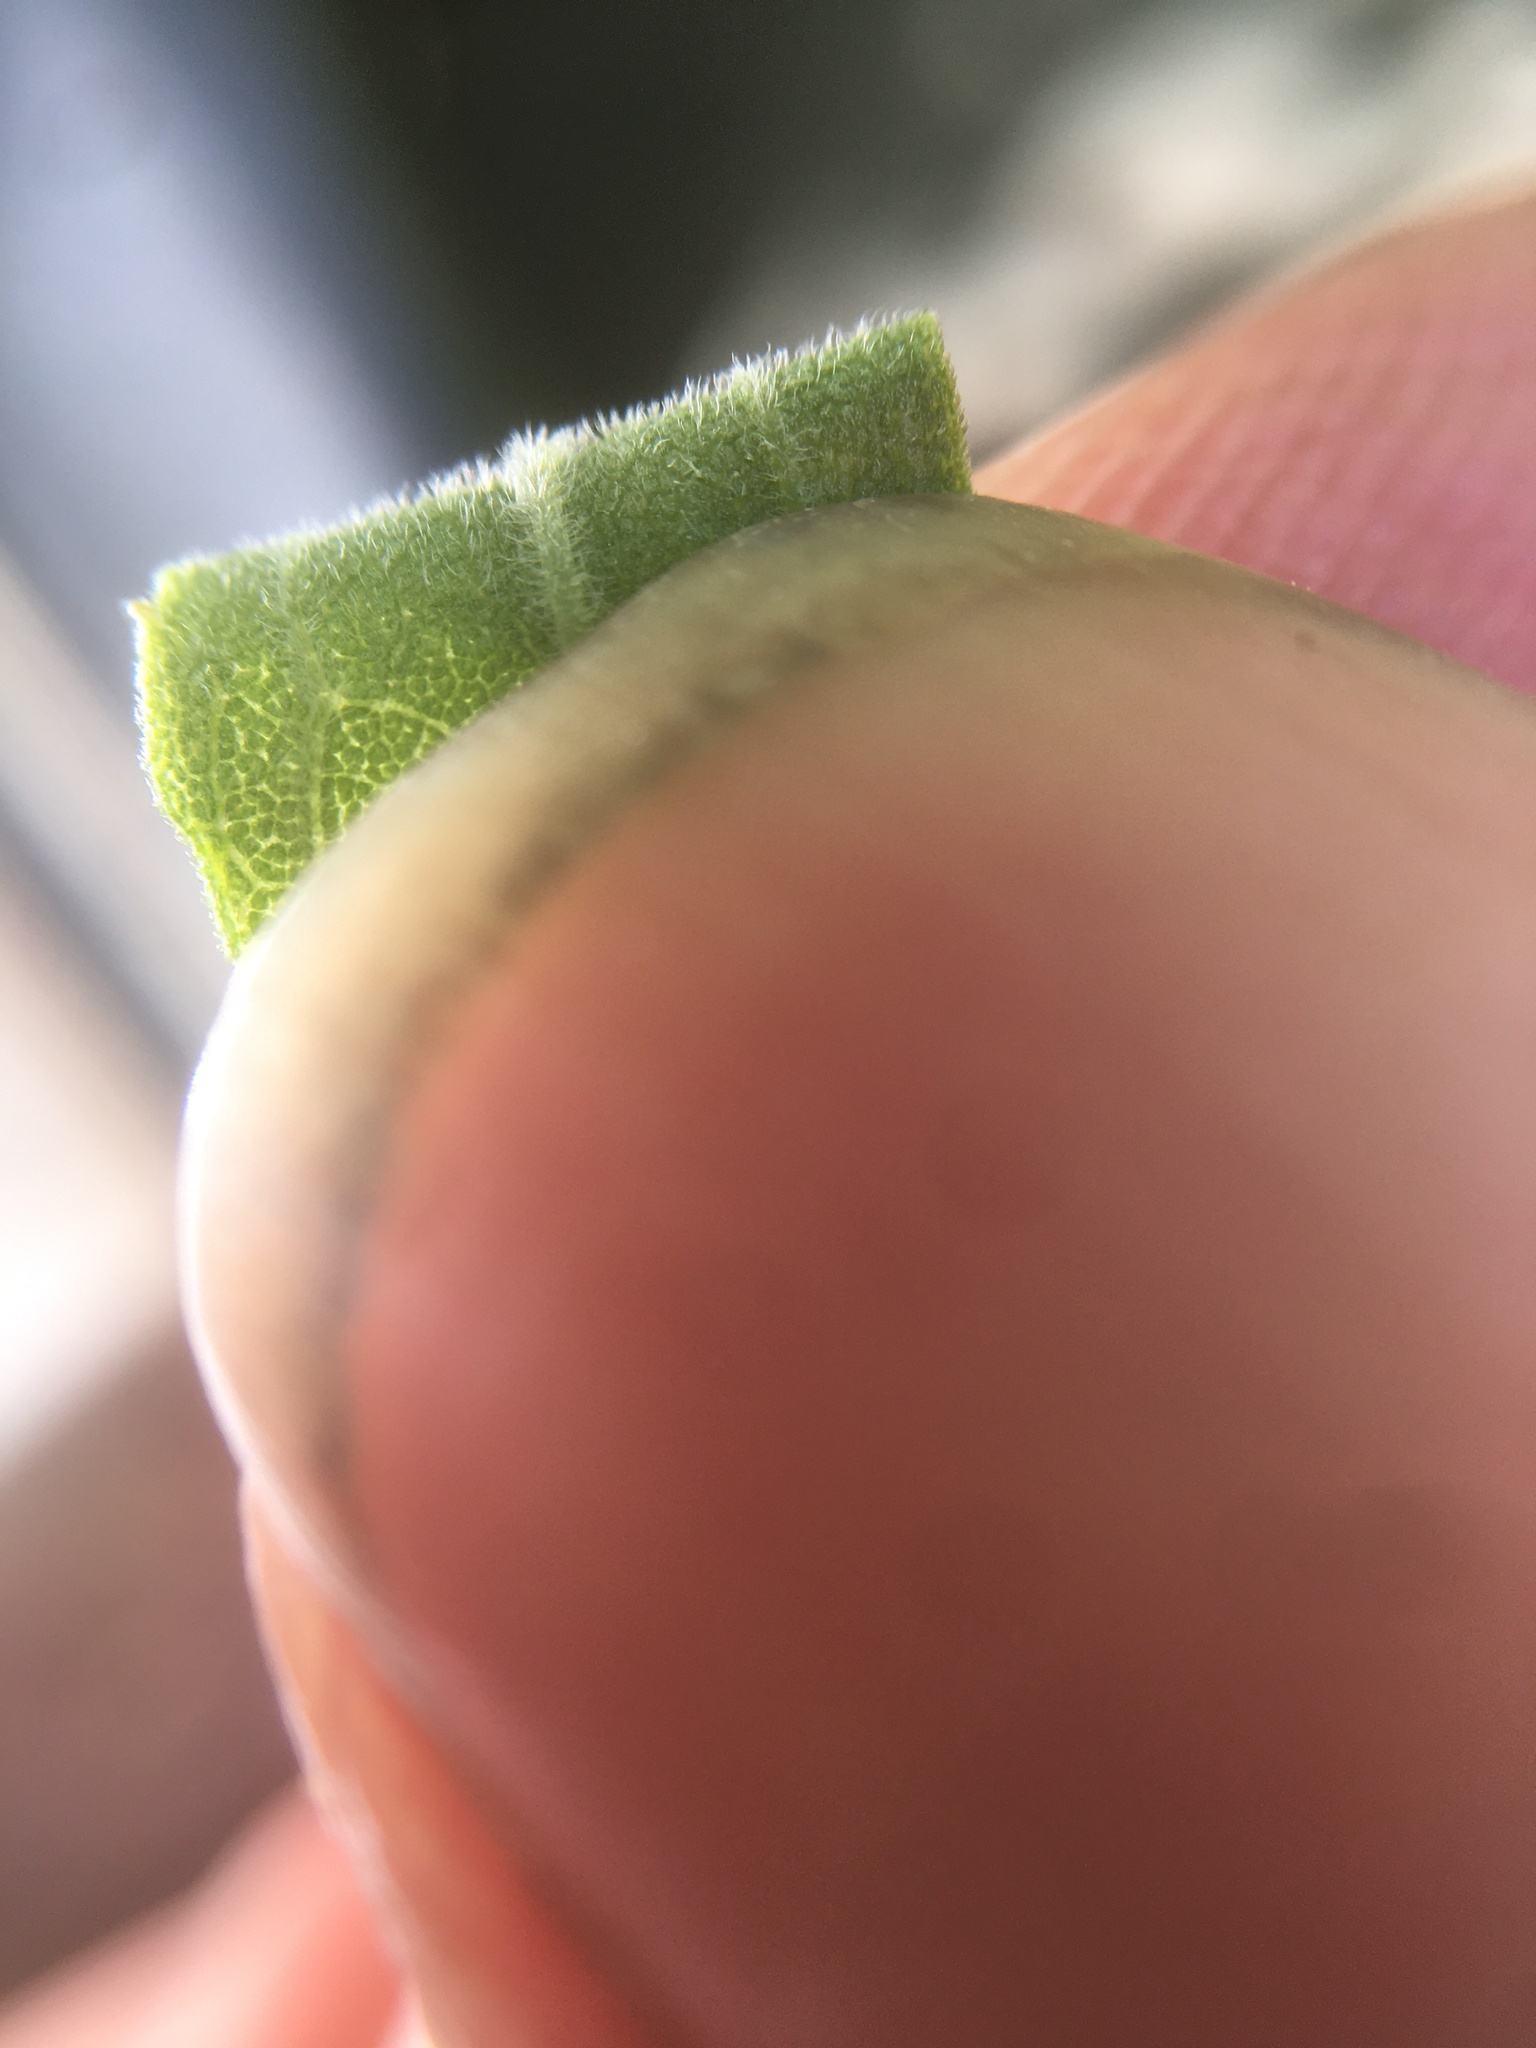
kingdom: Plantae
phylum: Tracheophyta
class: Magnoliopsida
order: Asterales
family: Asteraceae
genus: Solidago
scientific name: Solidago altissima
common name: Late goldenrod
